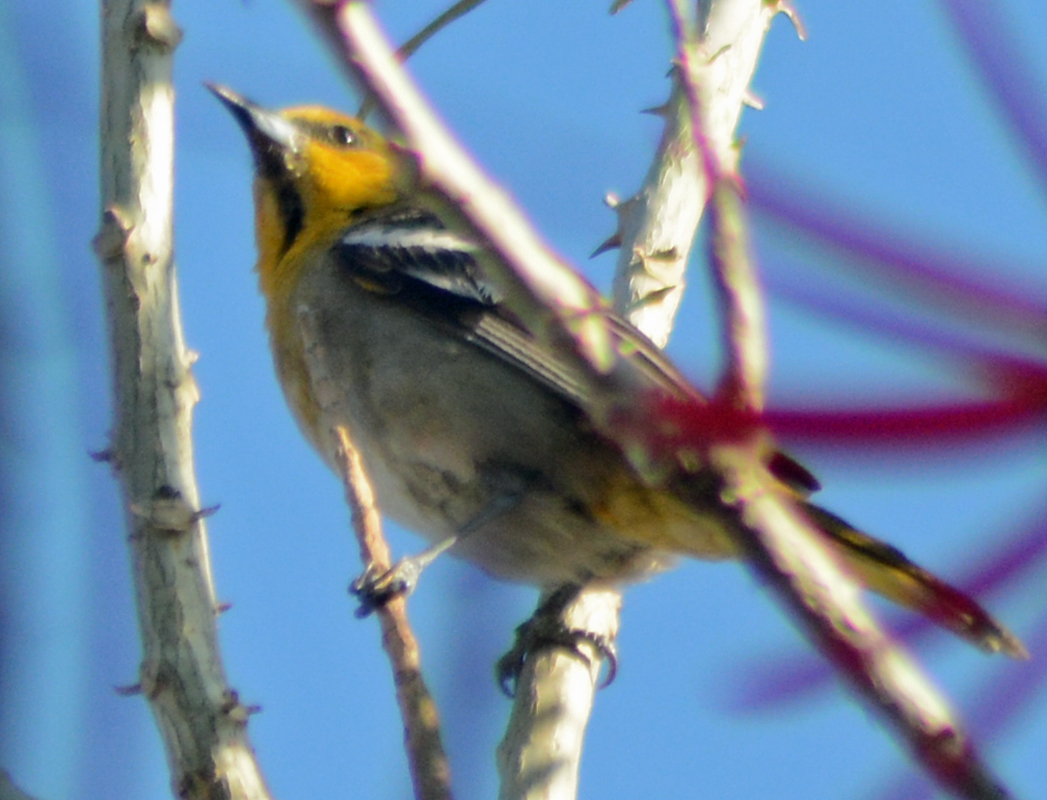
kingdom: Animalia
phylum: Chordata
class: Aves
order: Passeriformes
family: Icteridae
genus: Icterus
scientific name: Icterus abeillei
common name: Black-backed oriole
